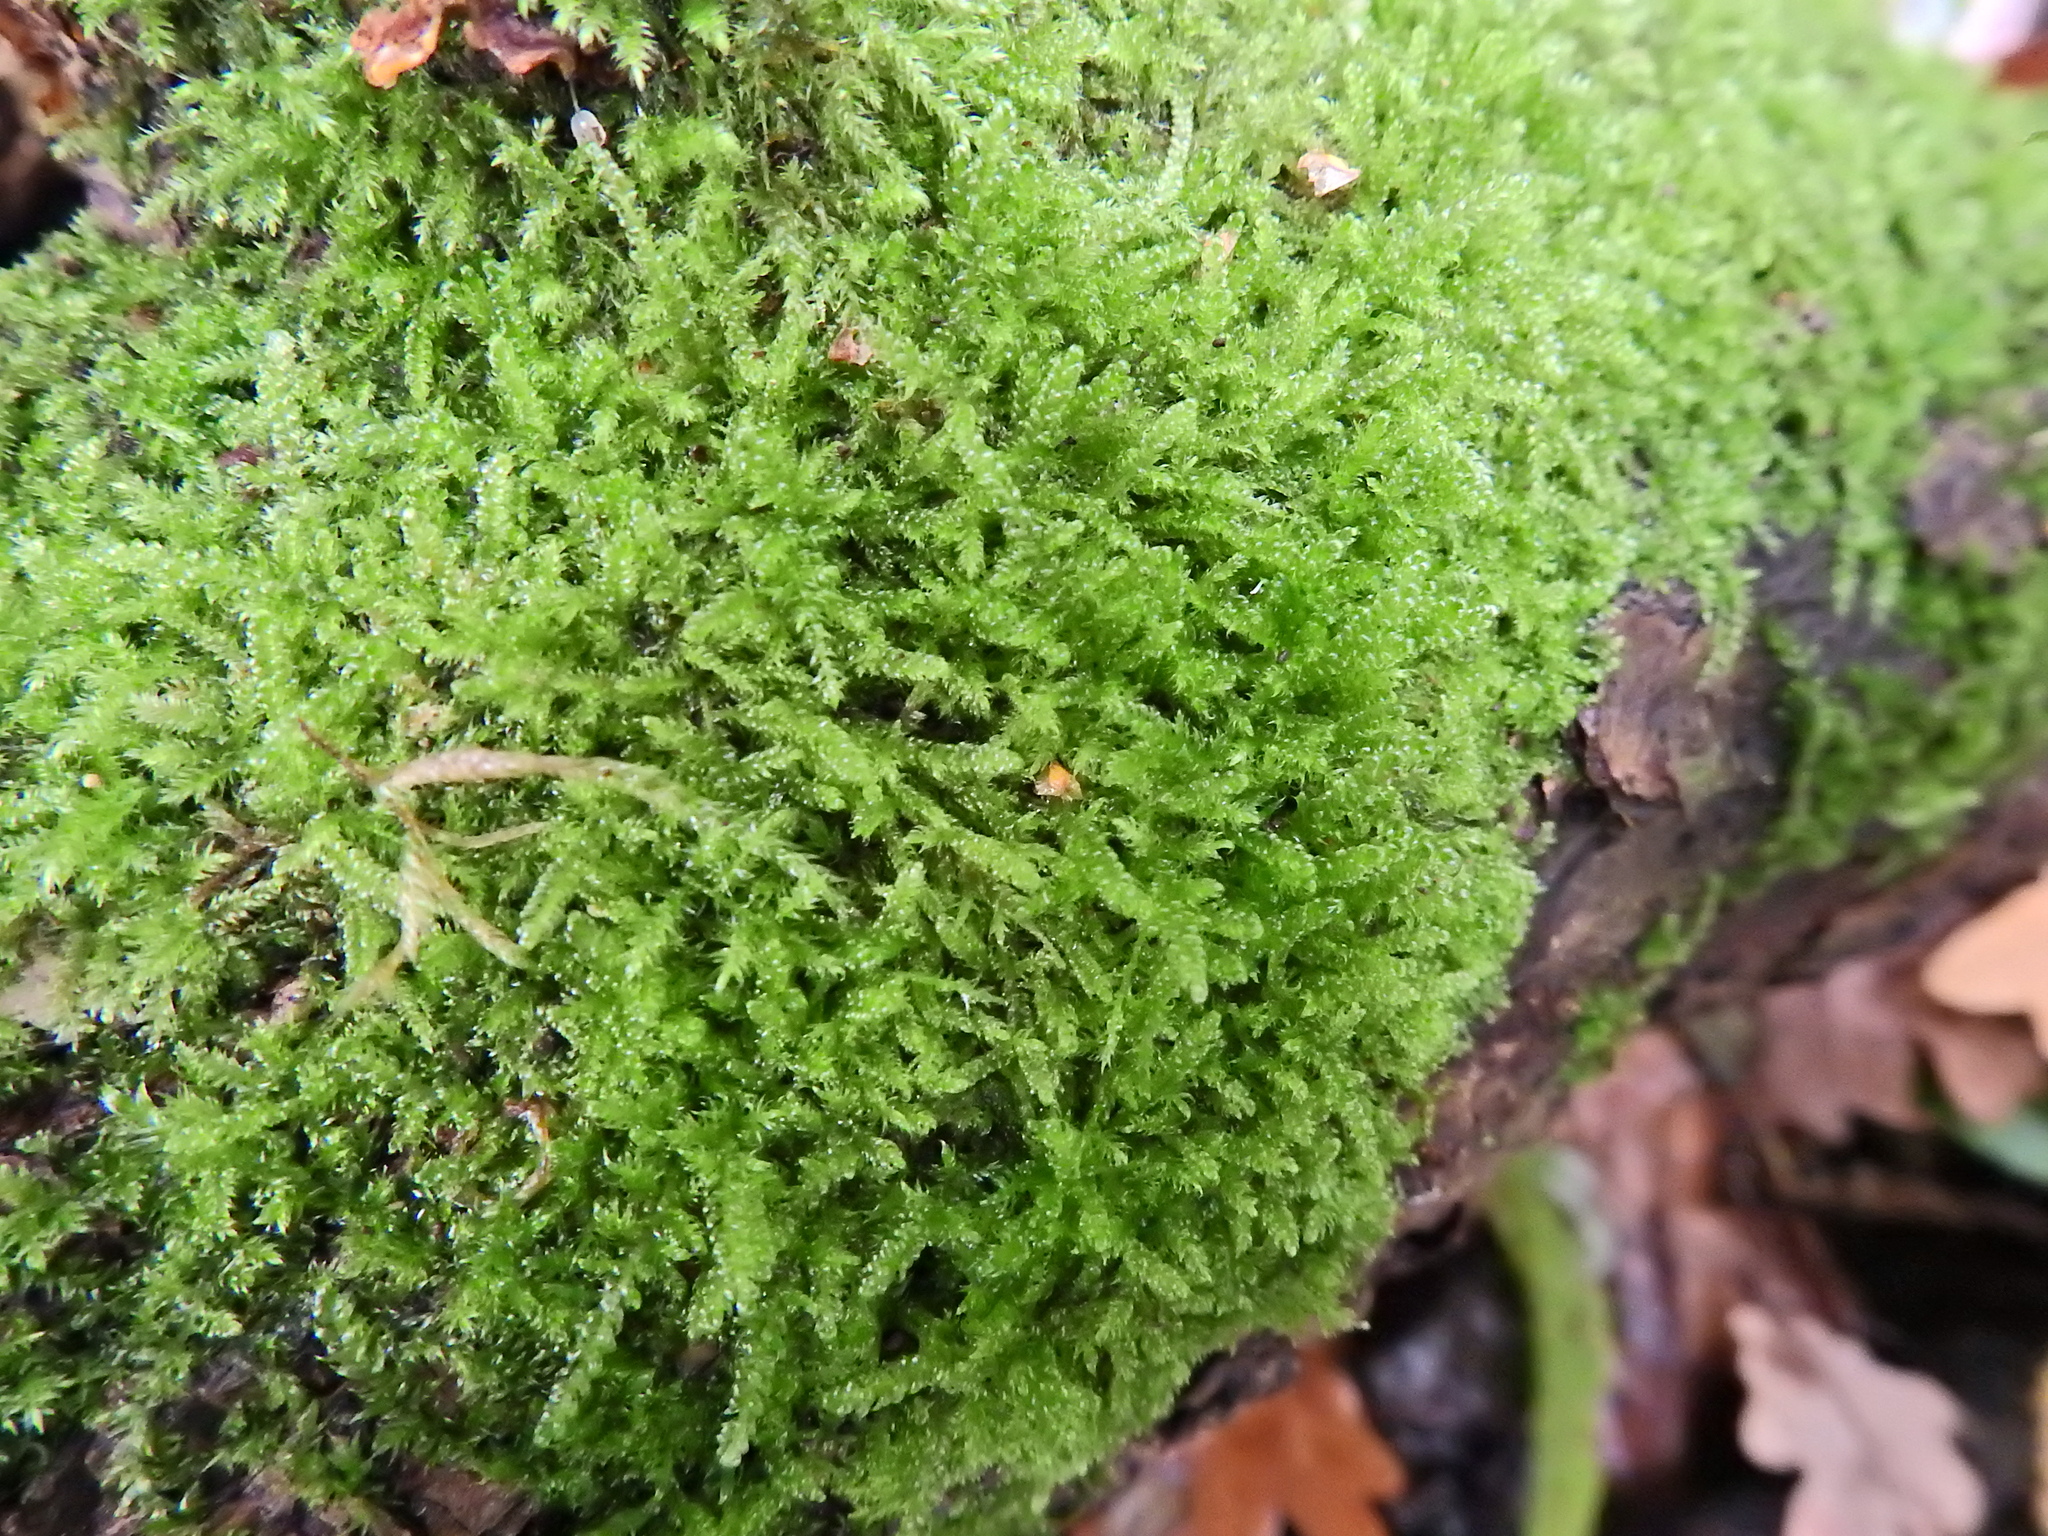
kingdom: Plantae
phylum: Bryophyta
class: Bryopsida
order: Hypnales
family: Hypnaceae
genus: Hypnum
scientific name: Hypnum cupressiforme
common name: Cypress-leaved plait-moss
